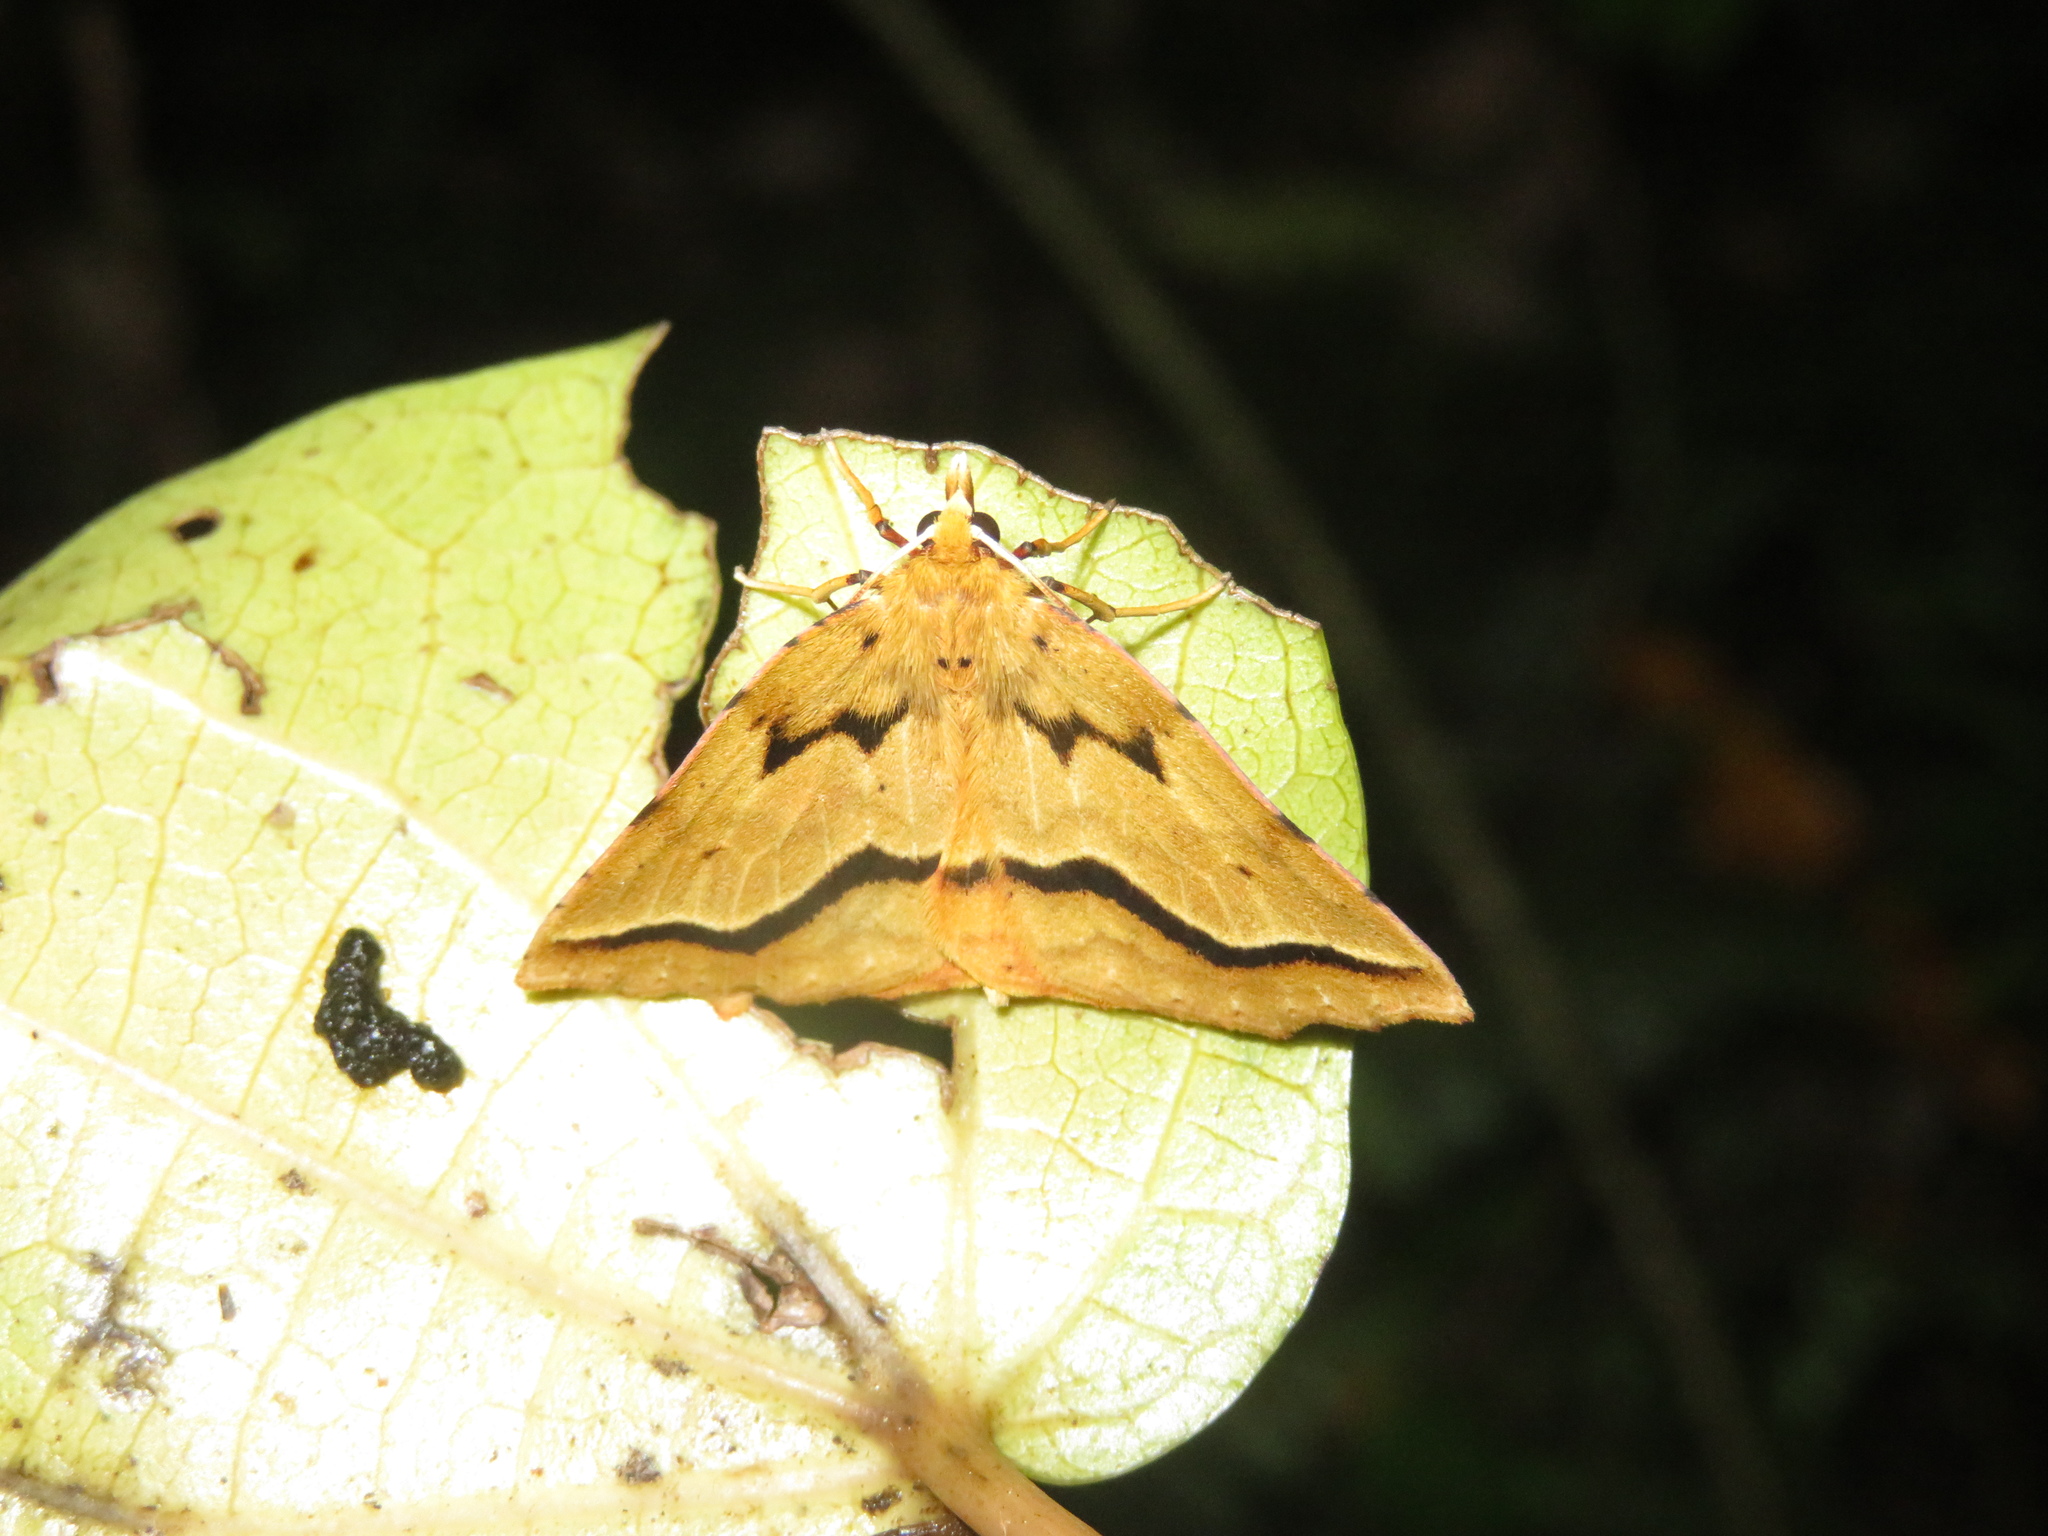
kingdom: Animalia
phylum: Arthropoda
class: Insecta
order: Lepidoptera
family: Geometridae
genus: Ischalis
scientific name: Ischalis variabilis
